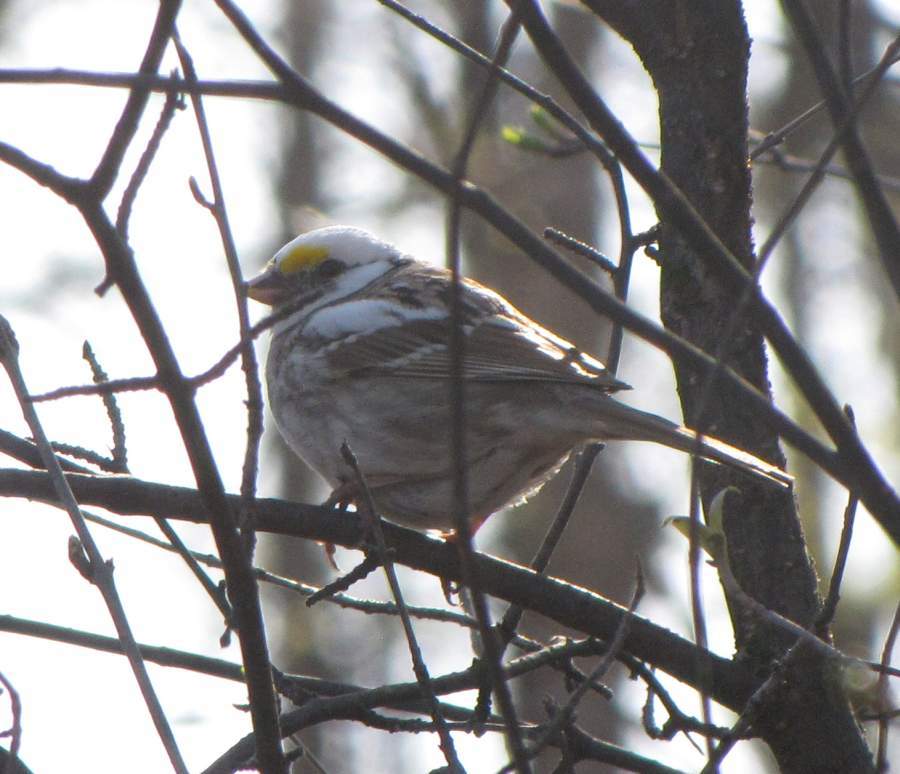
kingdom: Animalia
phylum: Chordata
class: Aves
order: Passeriformes
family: Passerellidae
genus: Zonotrichia
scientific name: Zonotrichia albicollis
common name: White-throated sparrow
